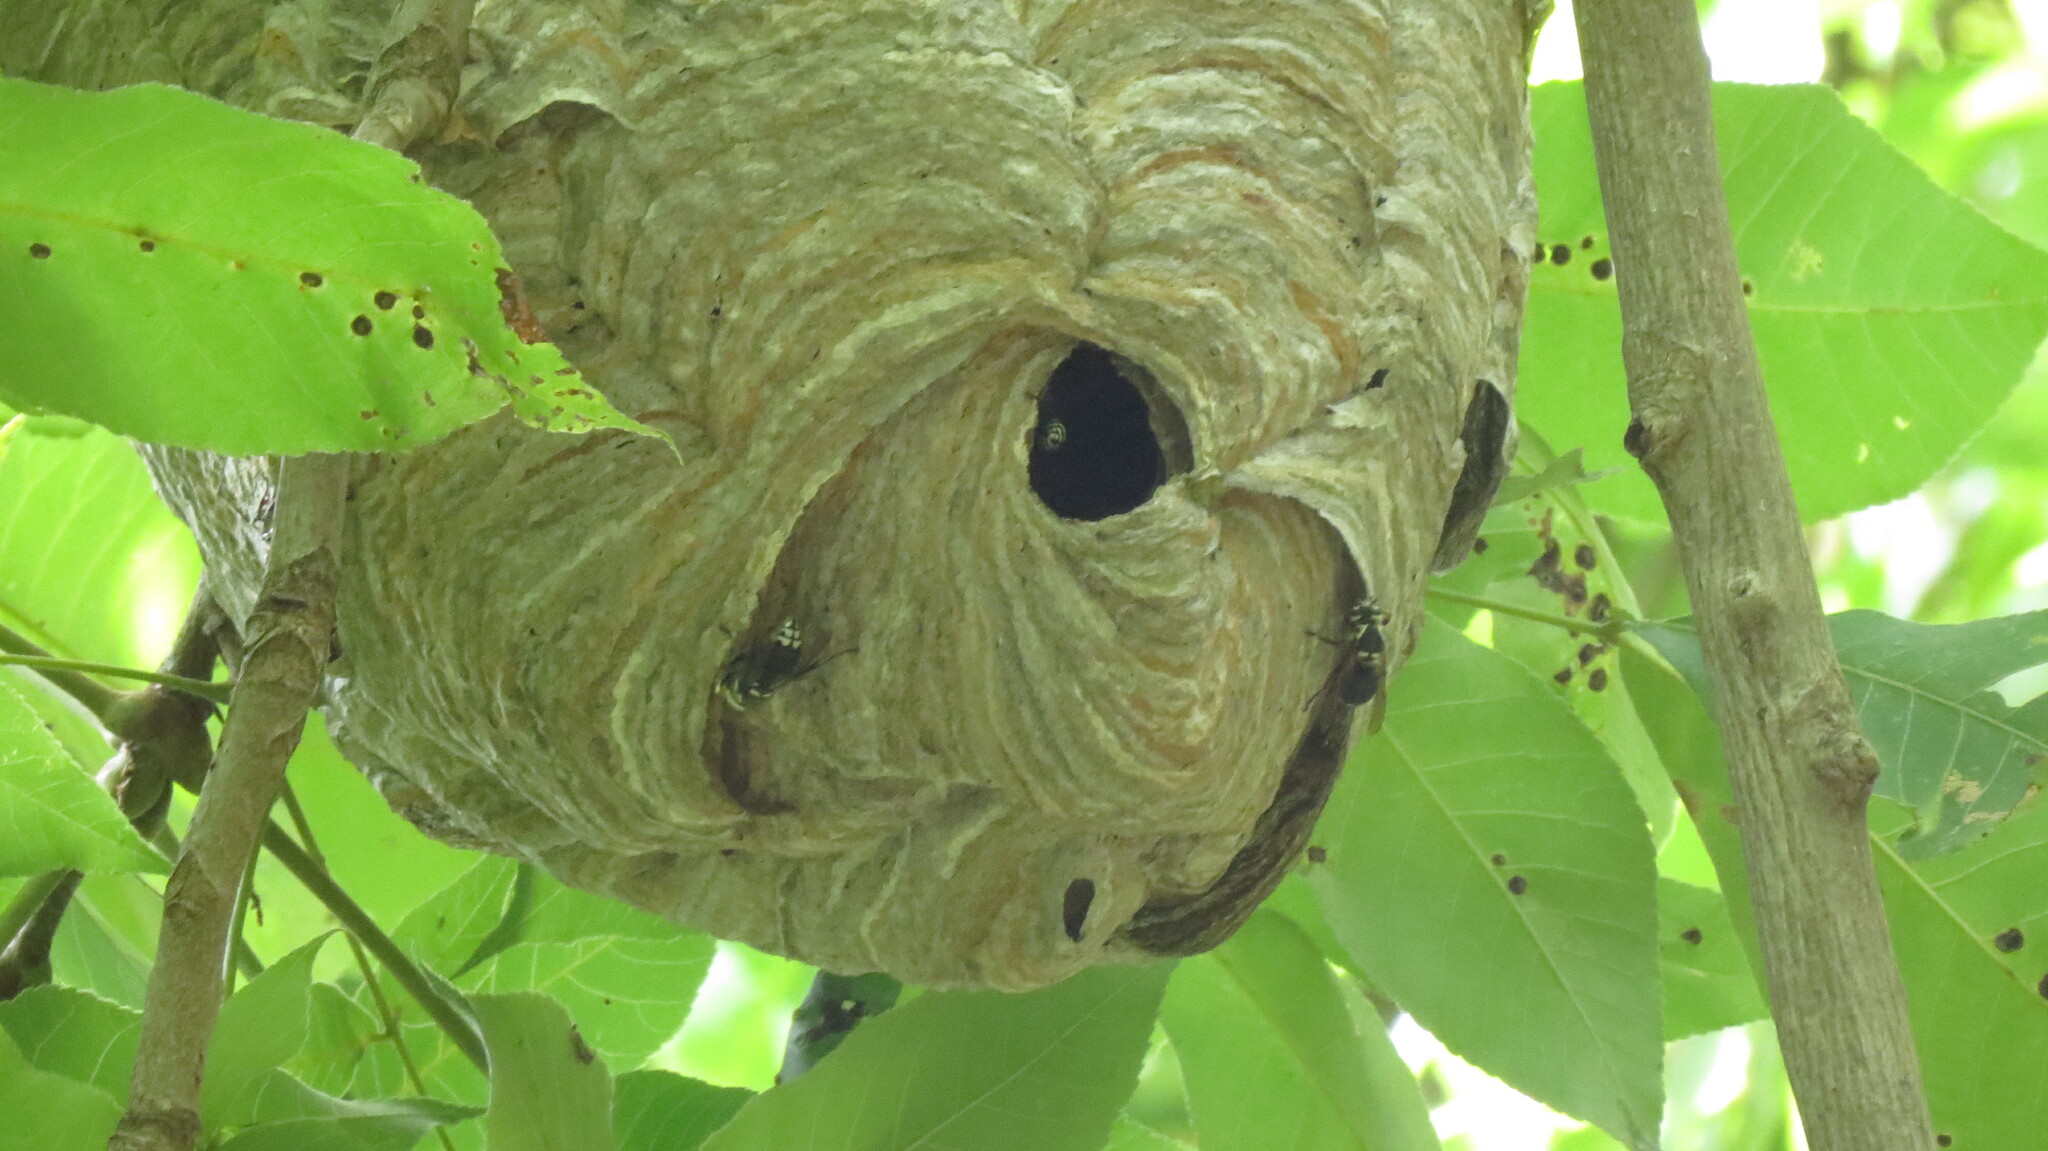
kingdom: Animalia
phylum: Arthropoda
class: Insecta
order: Hymenoptera
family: Vespidae
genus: Dolichovespula
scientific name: Dolichovespula maculata
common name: Bald-faced hornet
